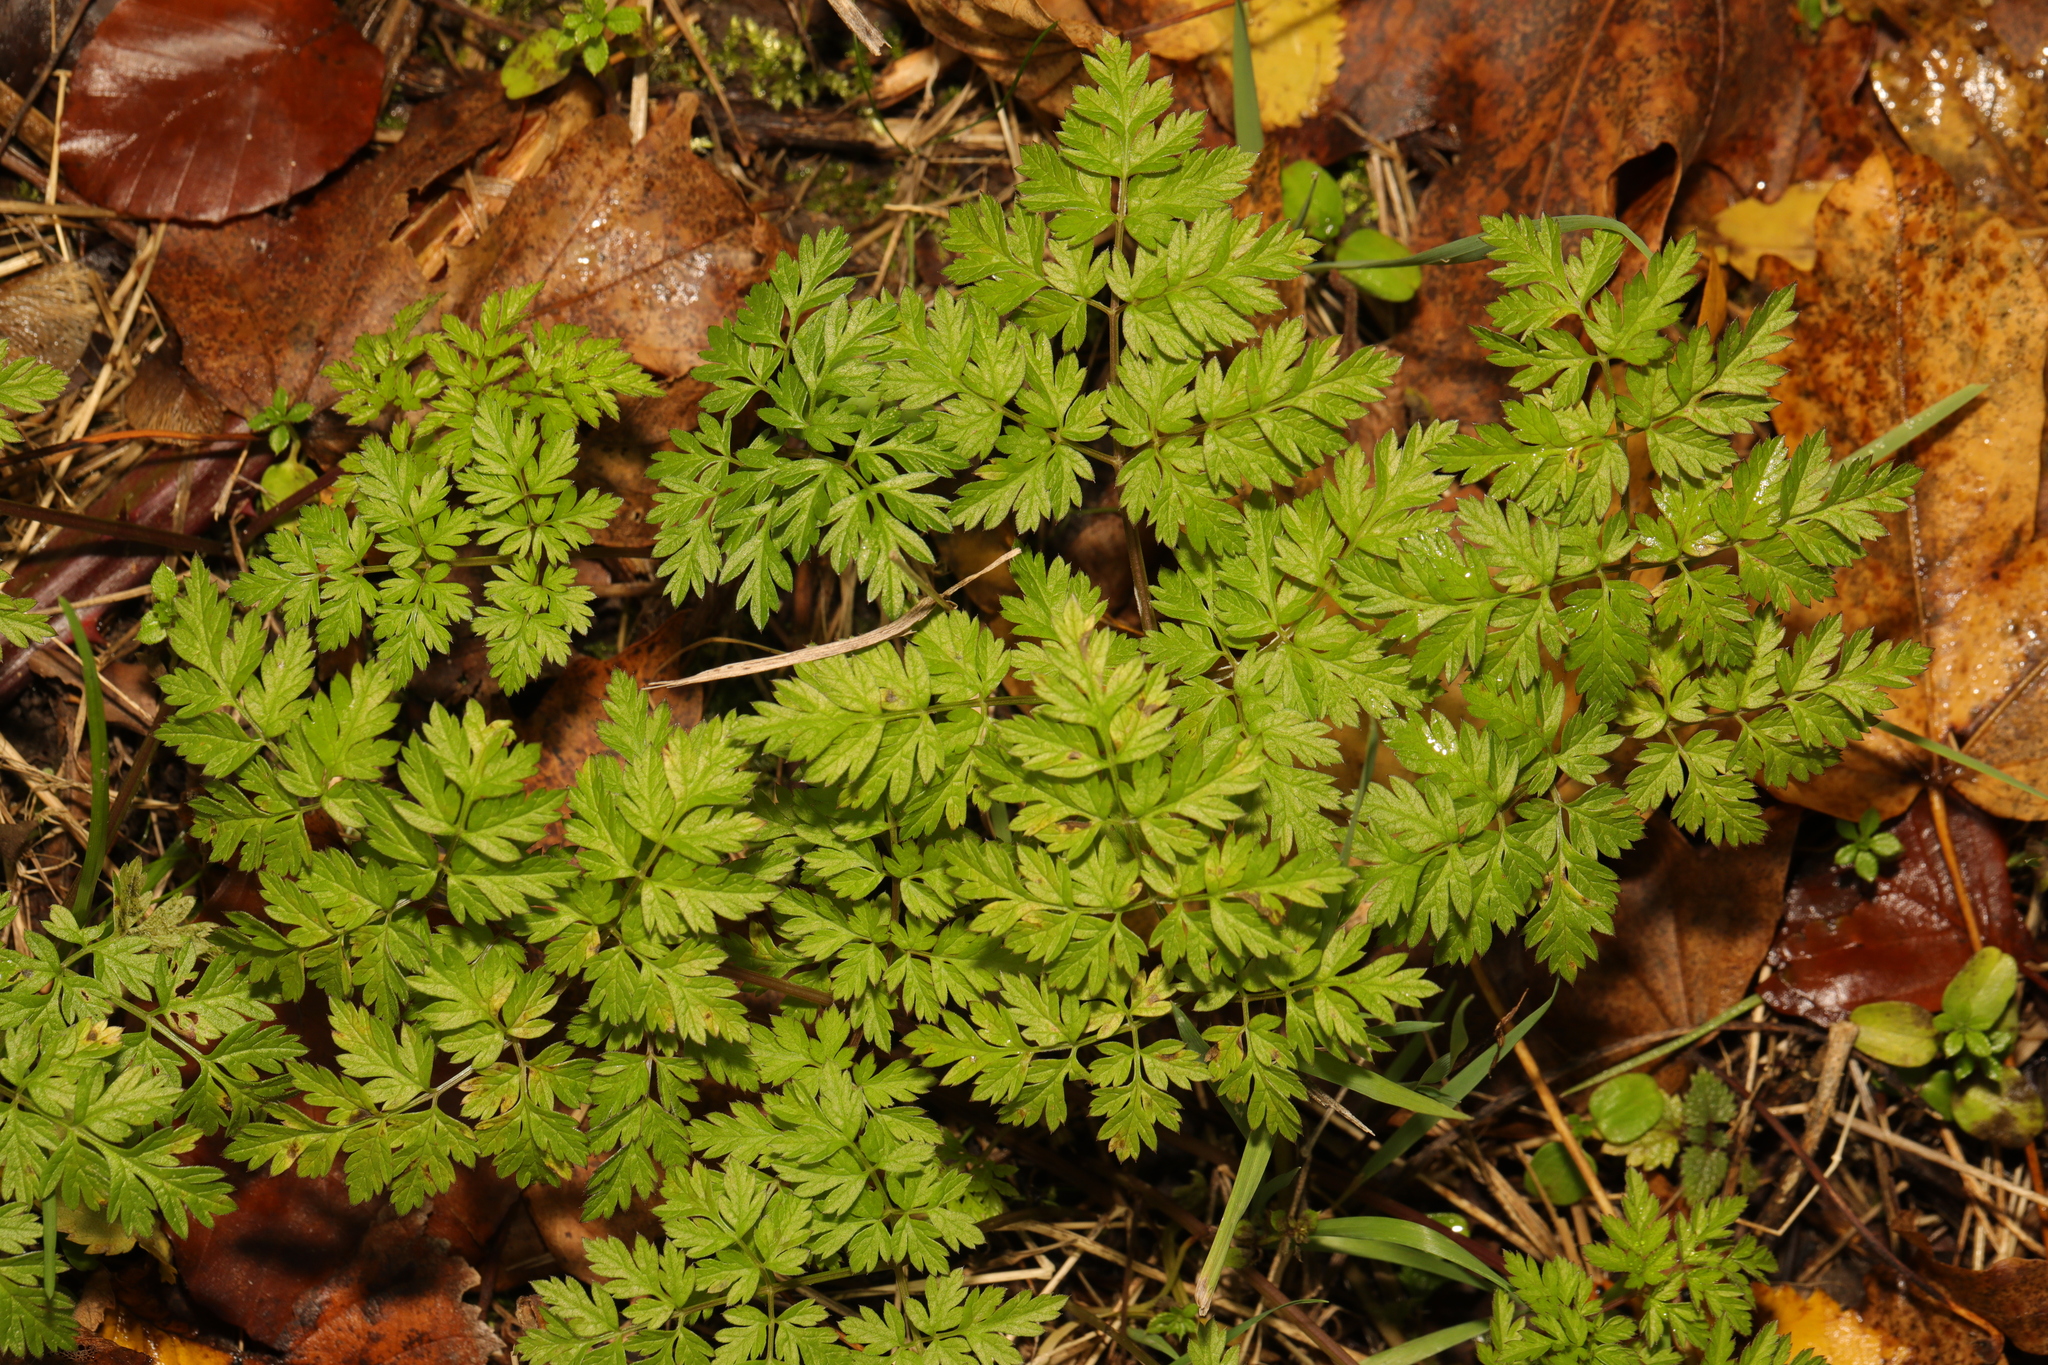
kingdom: Plantae
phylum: Tracheophyta
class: Magnoliopsida
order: Apiales
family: Apiaceae
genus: Anthriscus
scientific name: Anthriscus sylvestris
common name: Cow parsley
